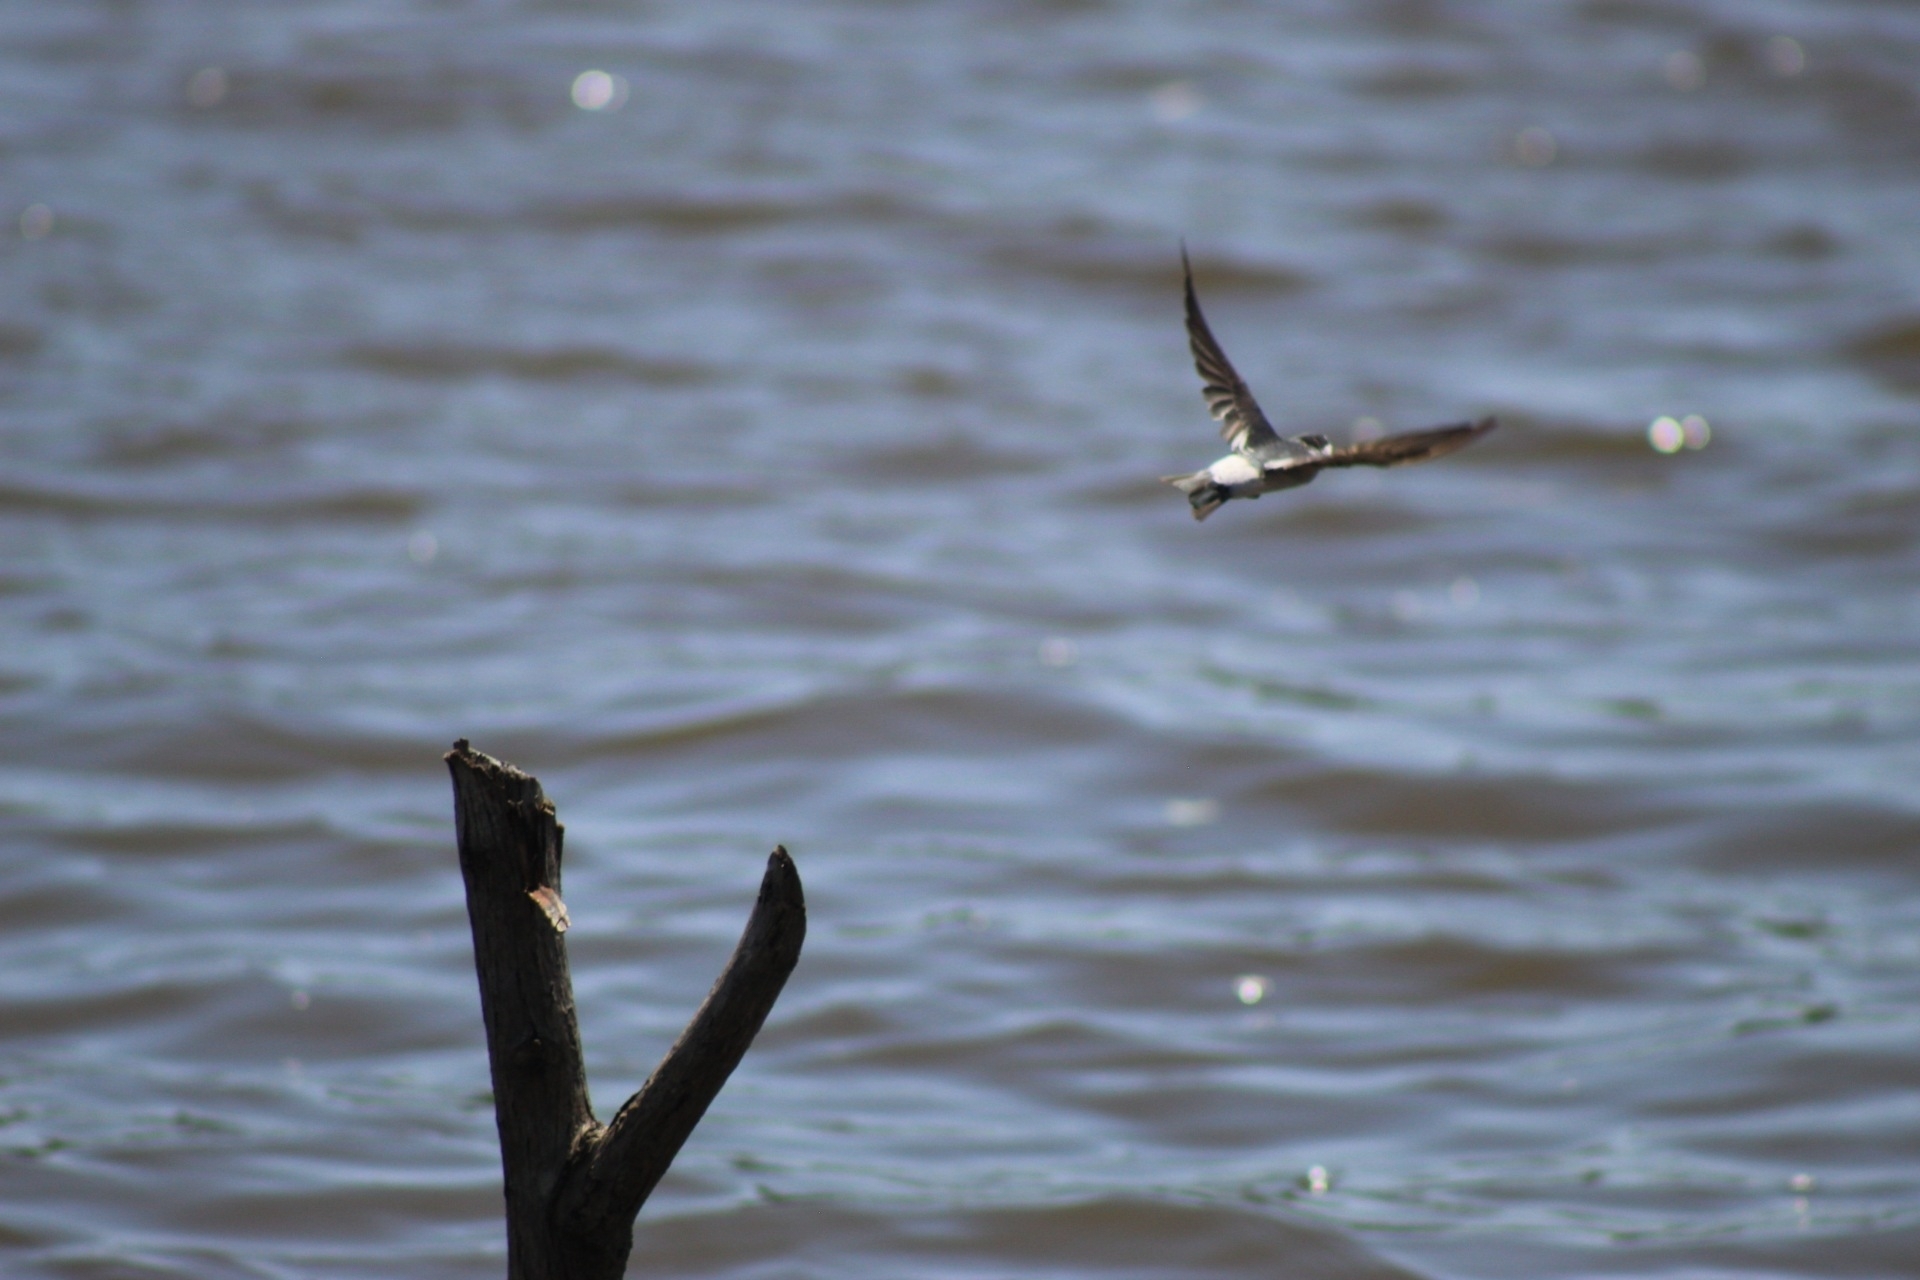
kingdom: Animalia
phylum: Chordata
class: Aves
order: Passeriformes
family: Hirundinidae
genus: Tachycineta
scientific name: Tachycineta albilinea
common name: Mangrove swallow
